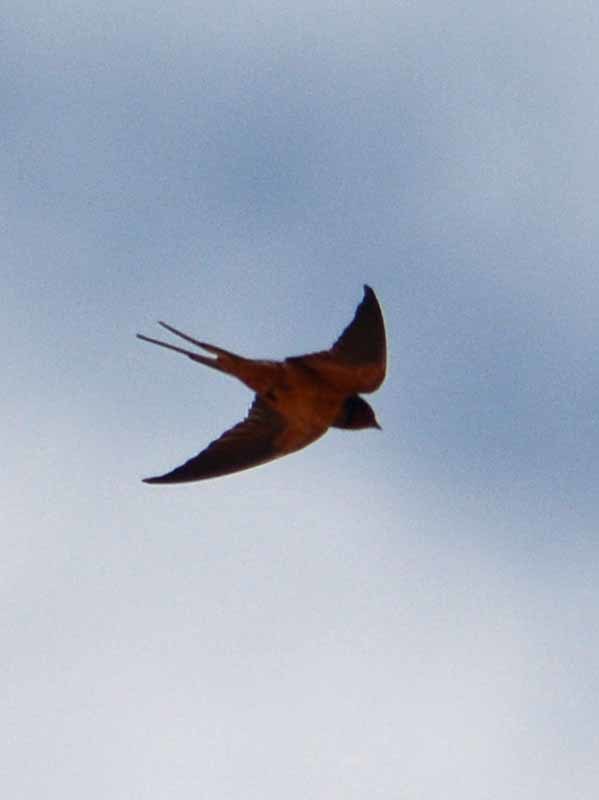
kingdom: Animalia
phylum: Chordata
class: Aves
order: Passeriformes
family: Hirundinidae
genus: Hirundo
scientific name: Hirundo rustica
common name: Barn swallow
